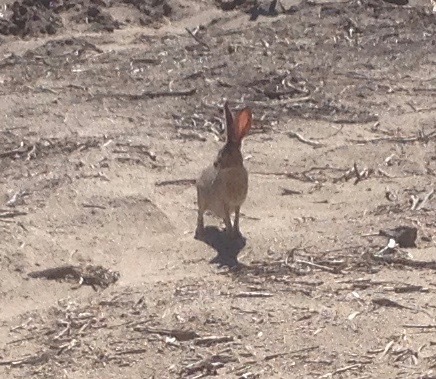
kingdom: Animalia
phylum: Chordata
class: Mammalia
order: Lagomorpha
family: Leporidae
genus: Lepus
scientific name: Lepus californicus
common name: Black-tailed jackrabbit
